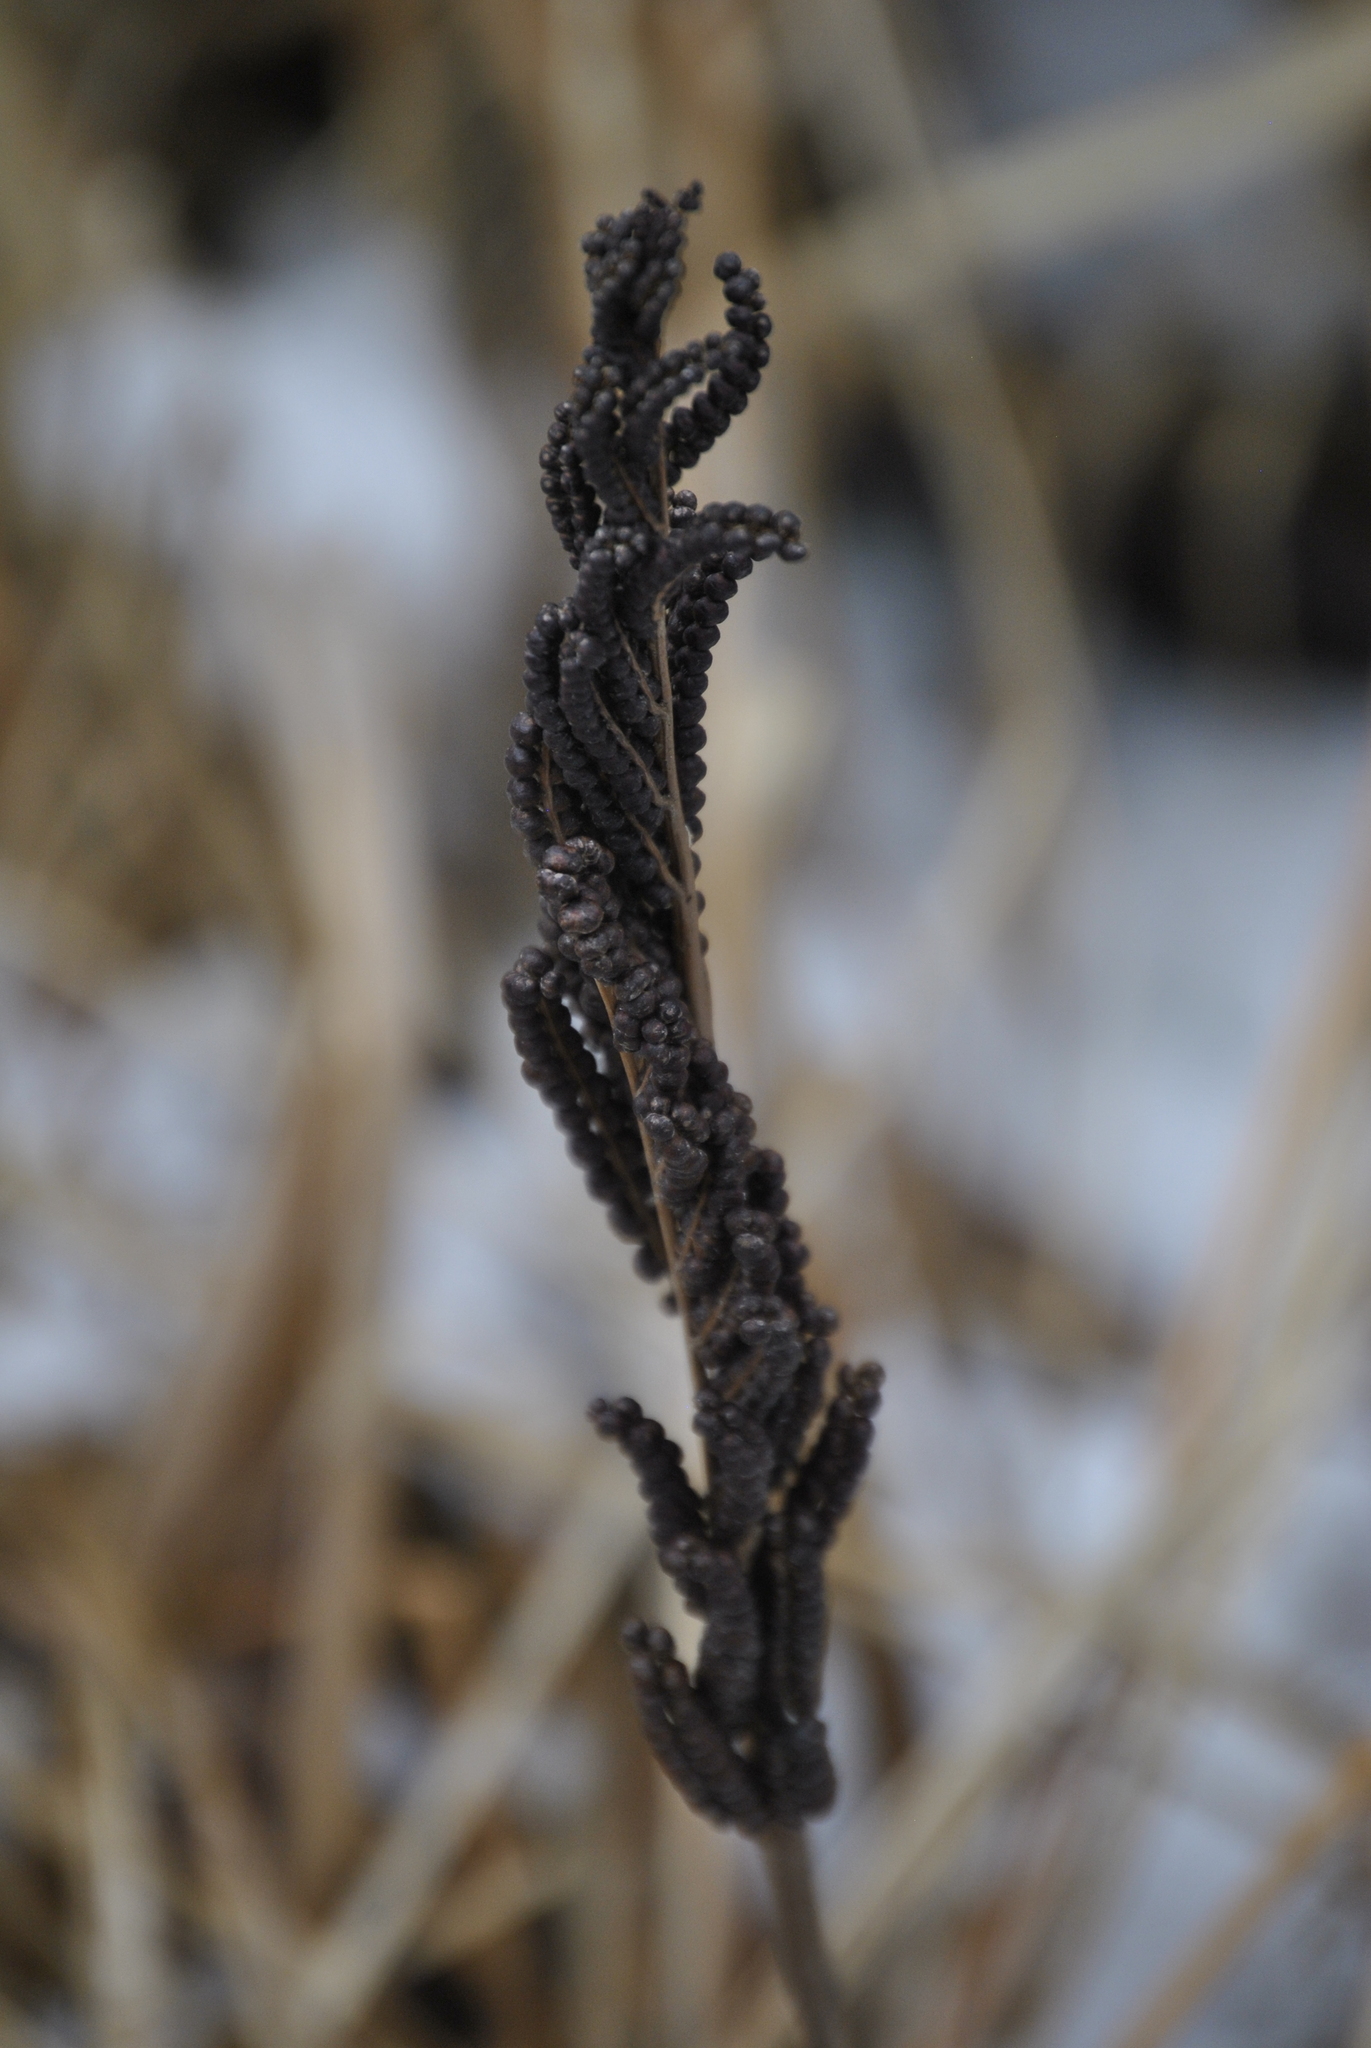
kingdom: Plantae
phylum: Tracheophyta
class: Polypodiopsida
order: Polypodiales
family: Onocleaceae
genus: Onoclea
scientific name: Onoclea sensibilis
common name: Sensitive fern
